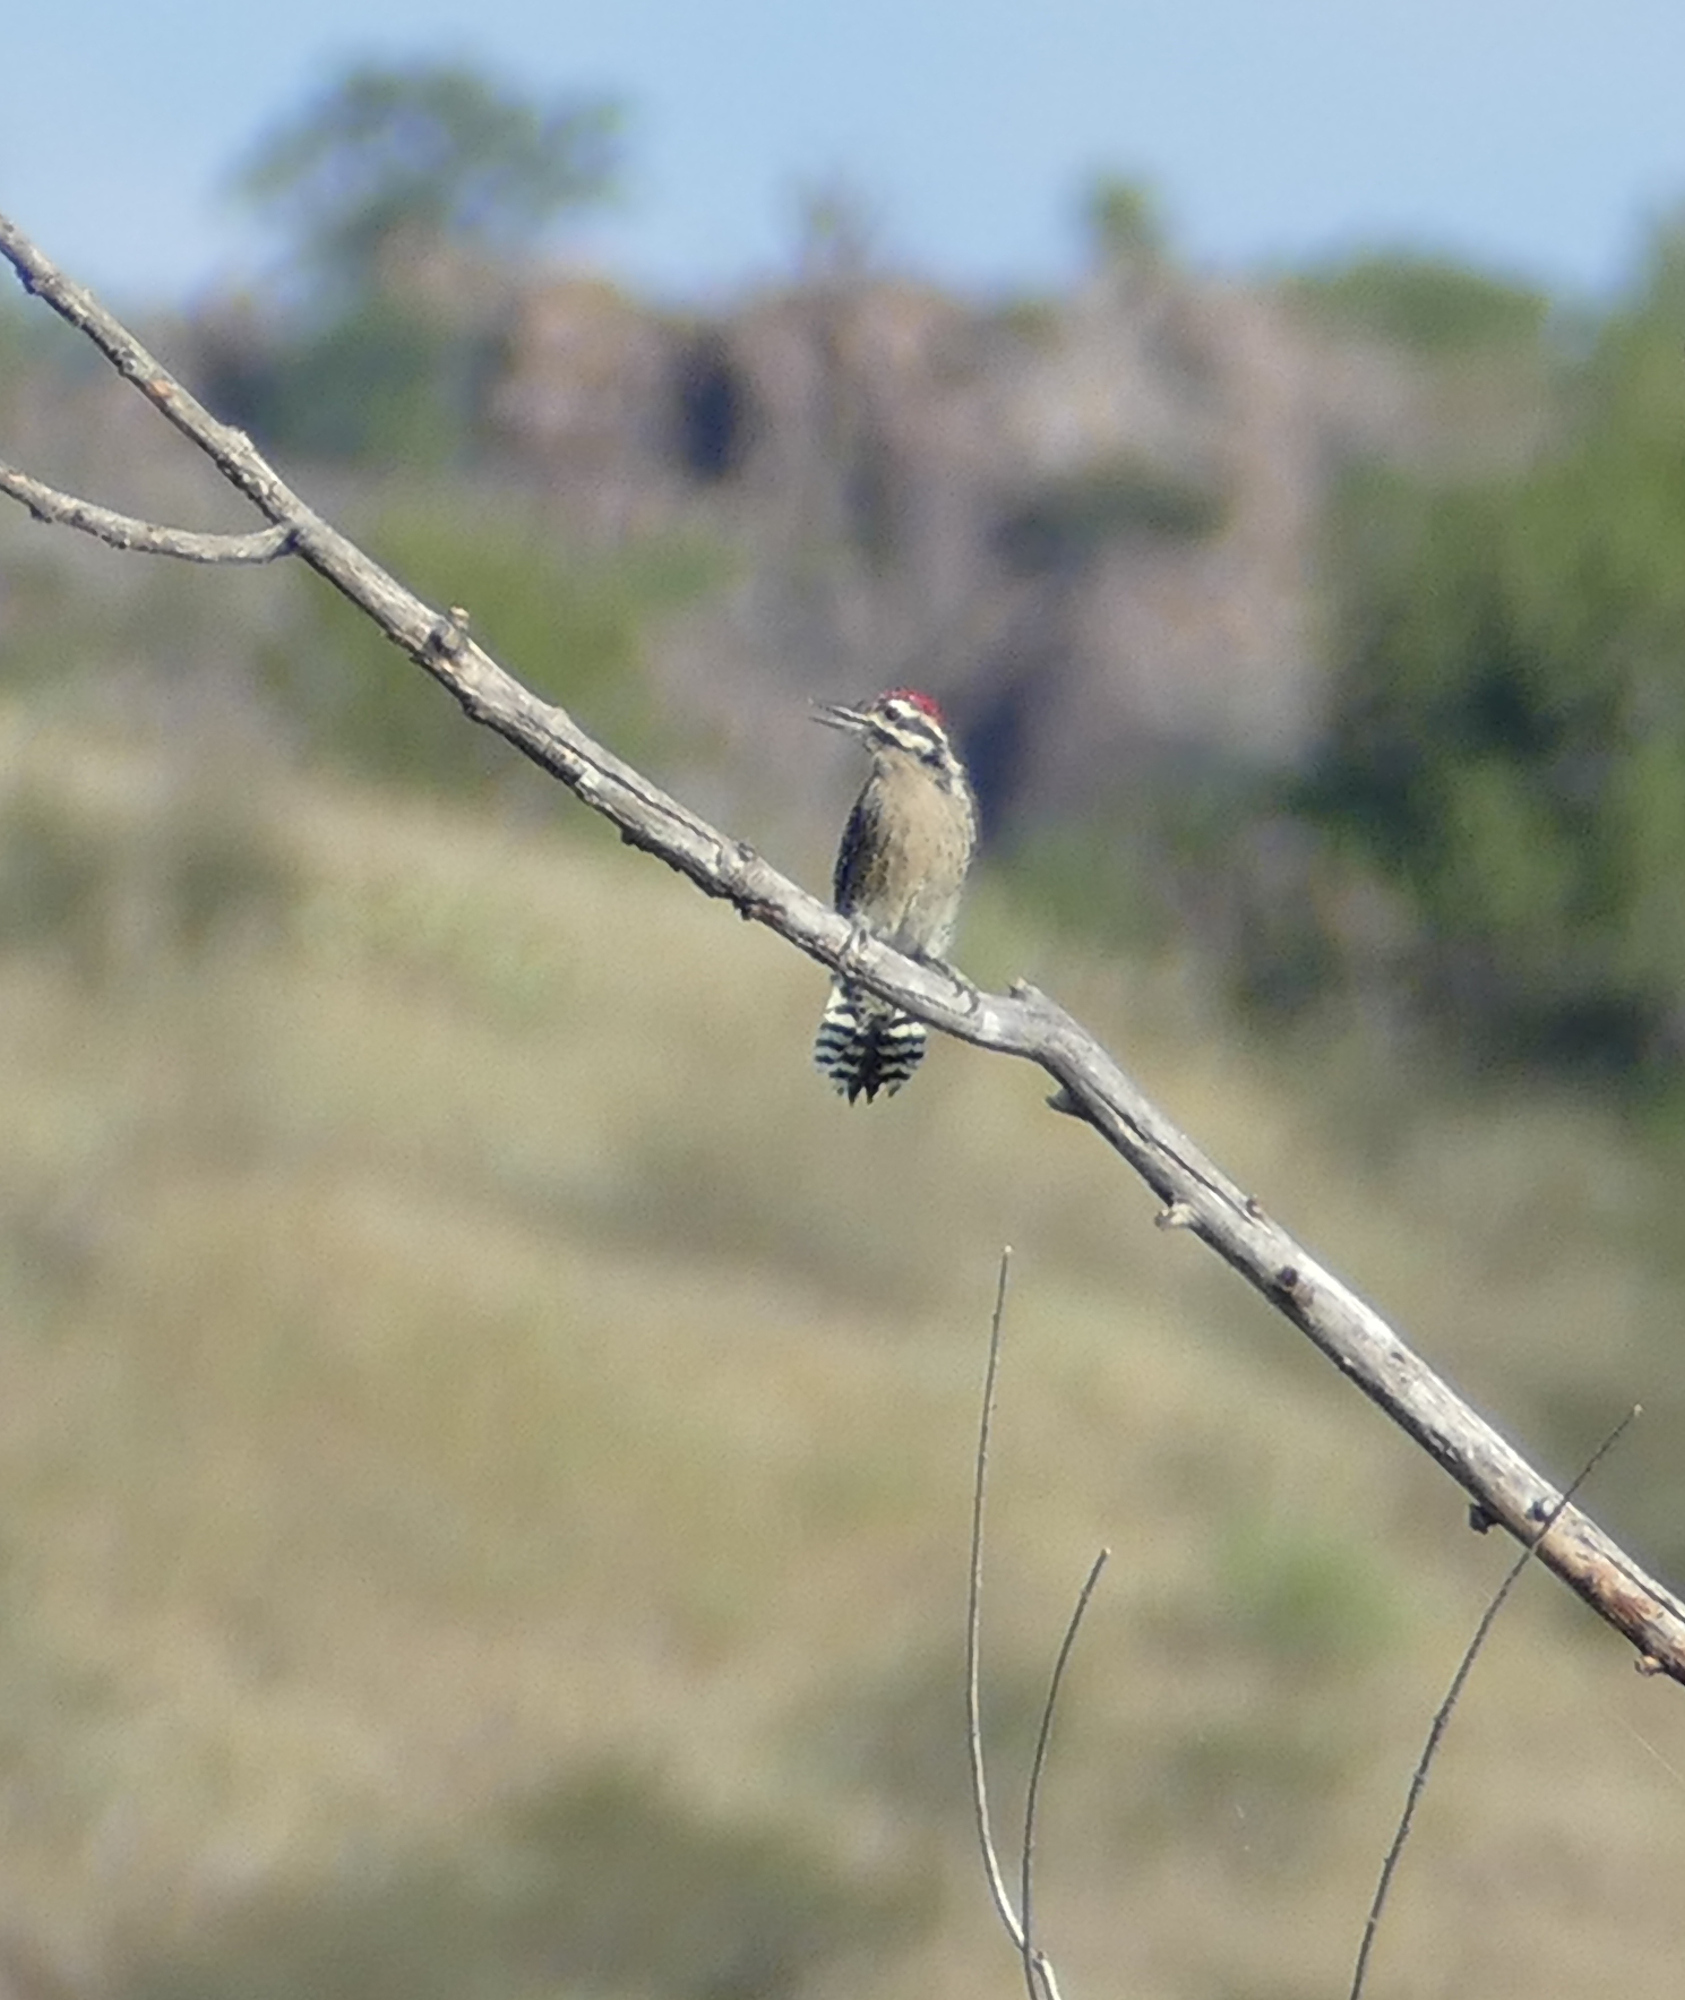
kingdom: Animalia
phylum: Chordata
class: Aves
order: Piciformes
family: Picidae
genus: Dryobates
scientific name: Dryobates scalaris
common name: Ladder-backed woodpecker
